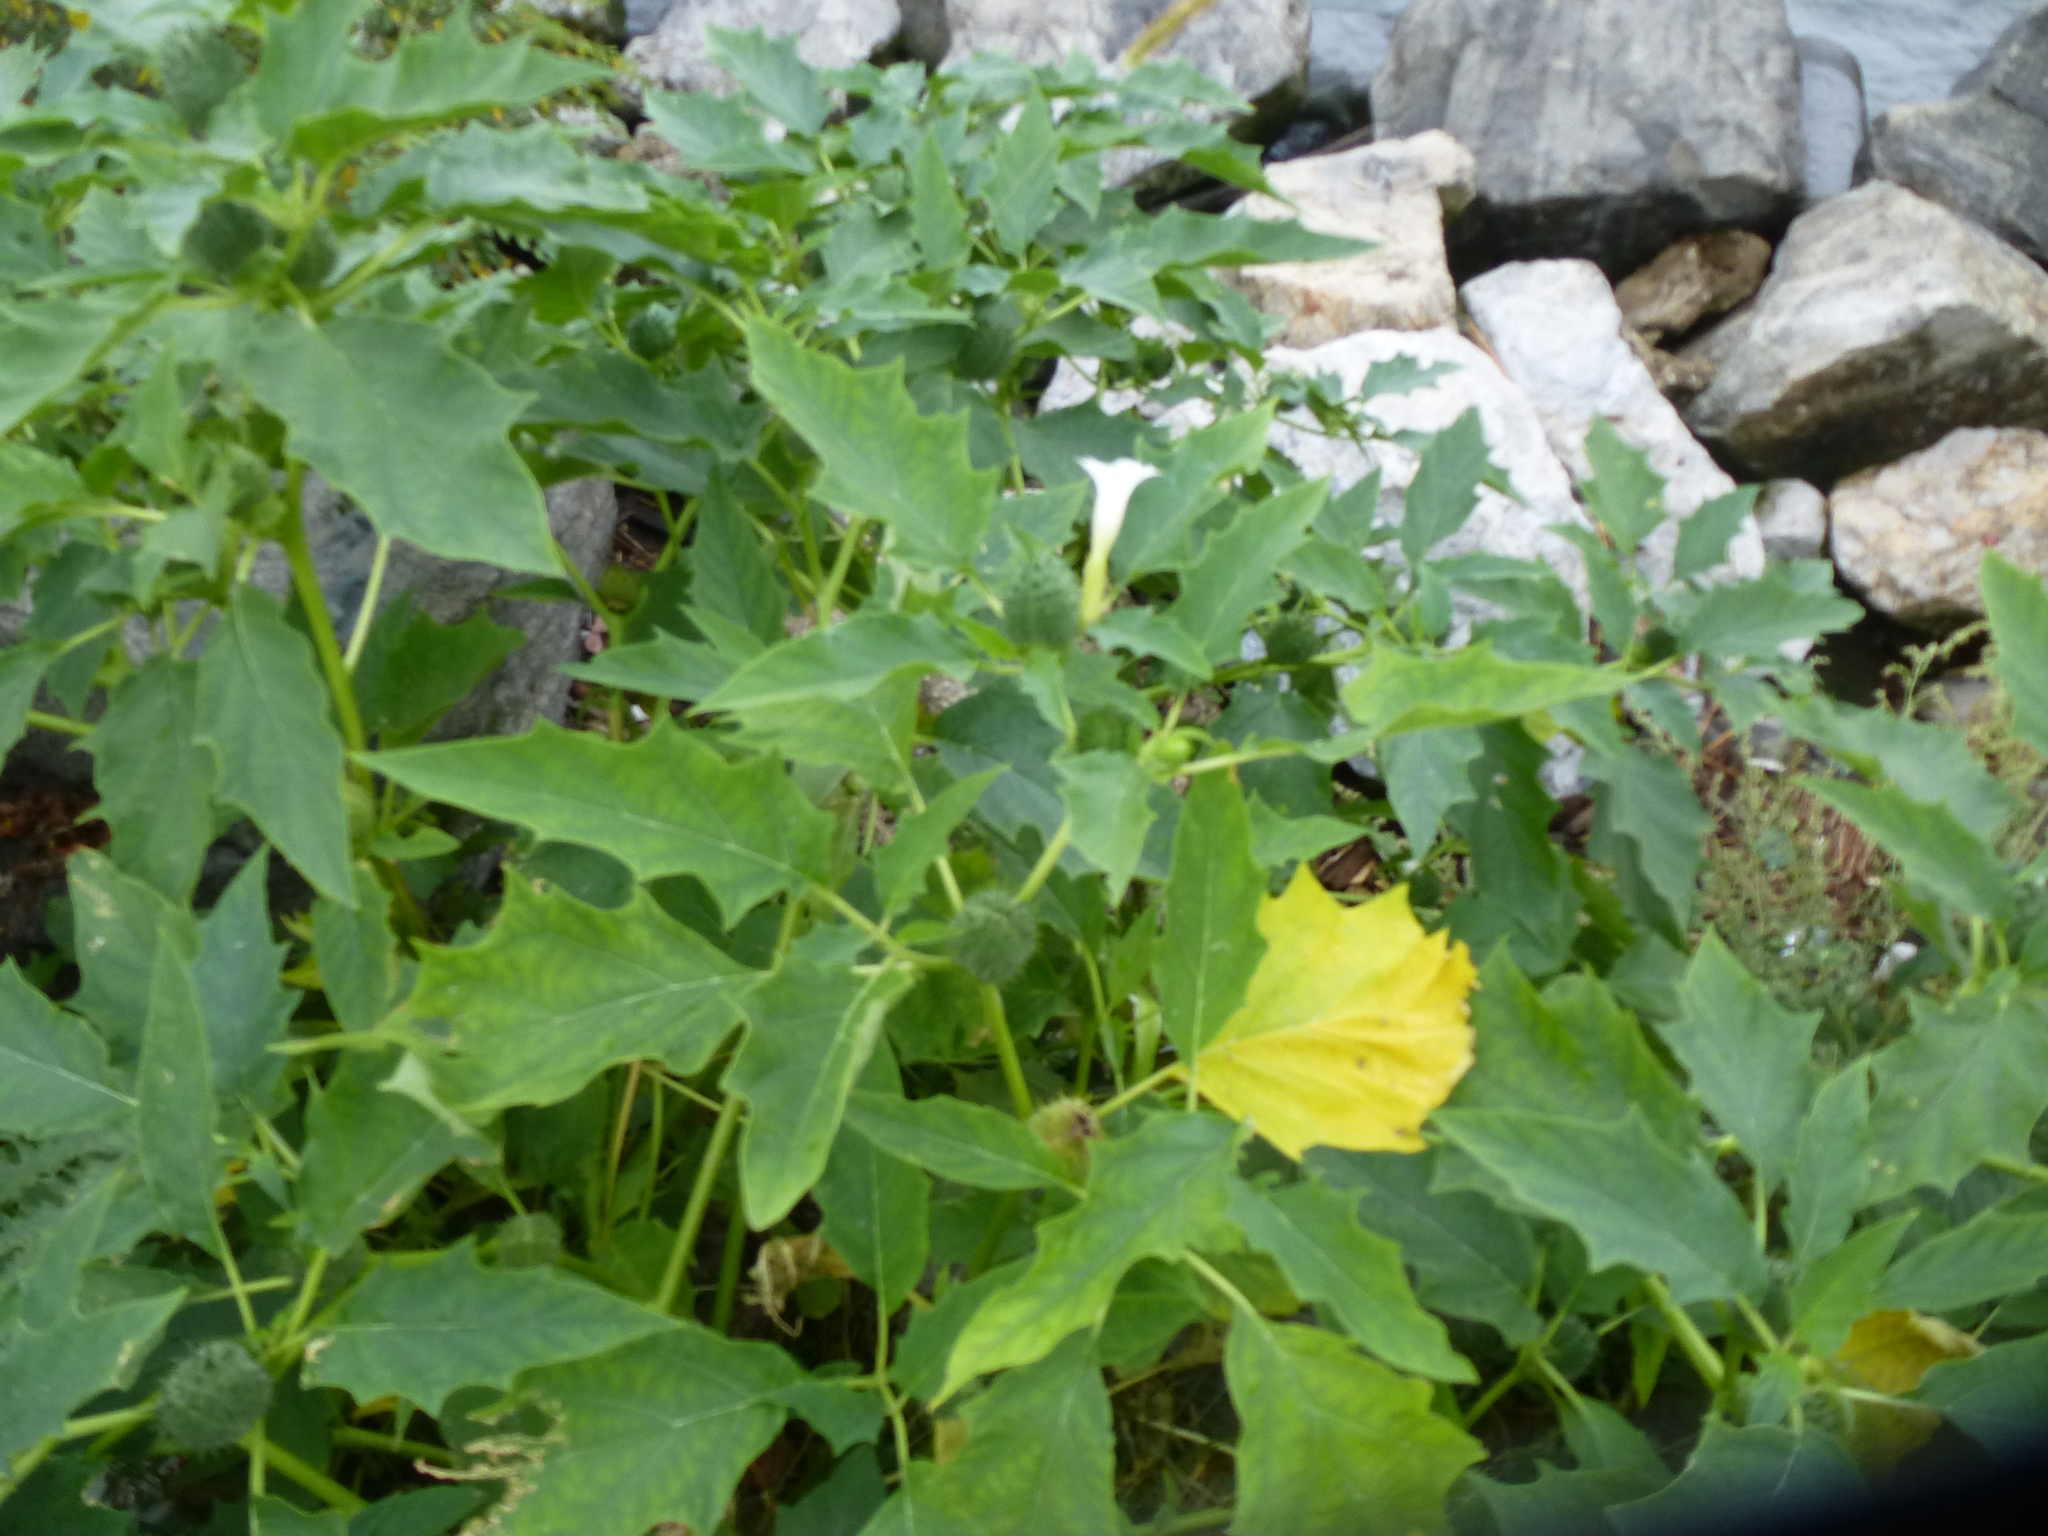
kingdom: Plantae
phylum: Tracheophyta
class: Magnoliopsida
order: Solanales
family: Solanaceae
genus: Datura
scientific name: Datura stramonium
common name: Thorn-apple
